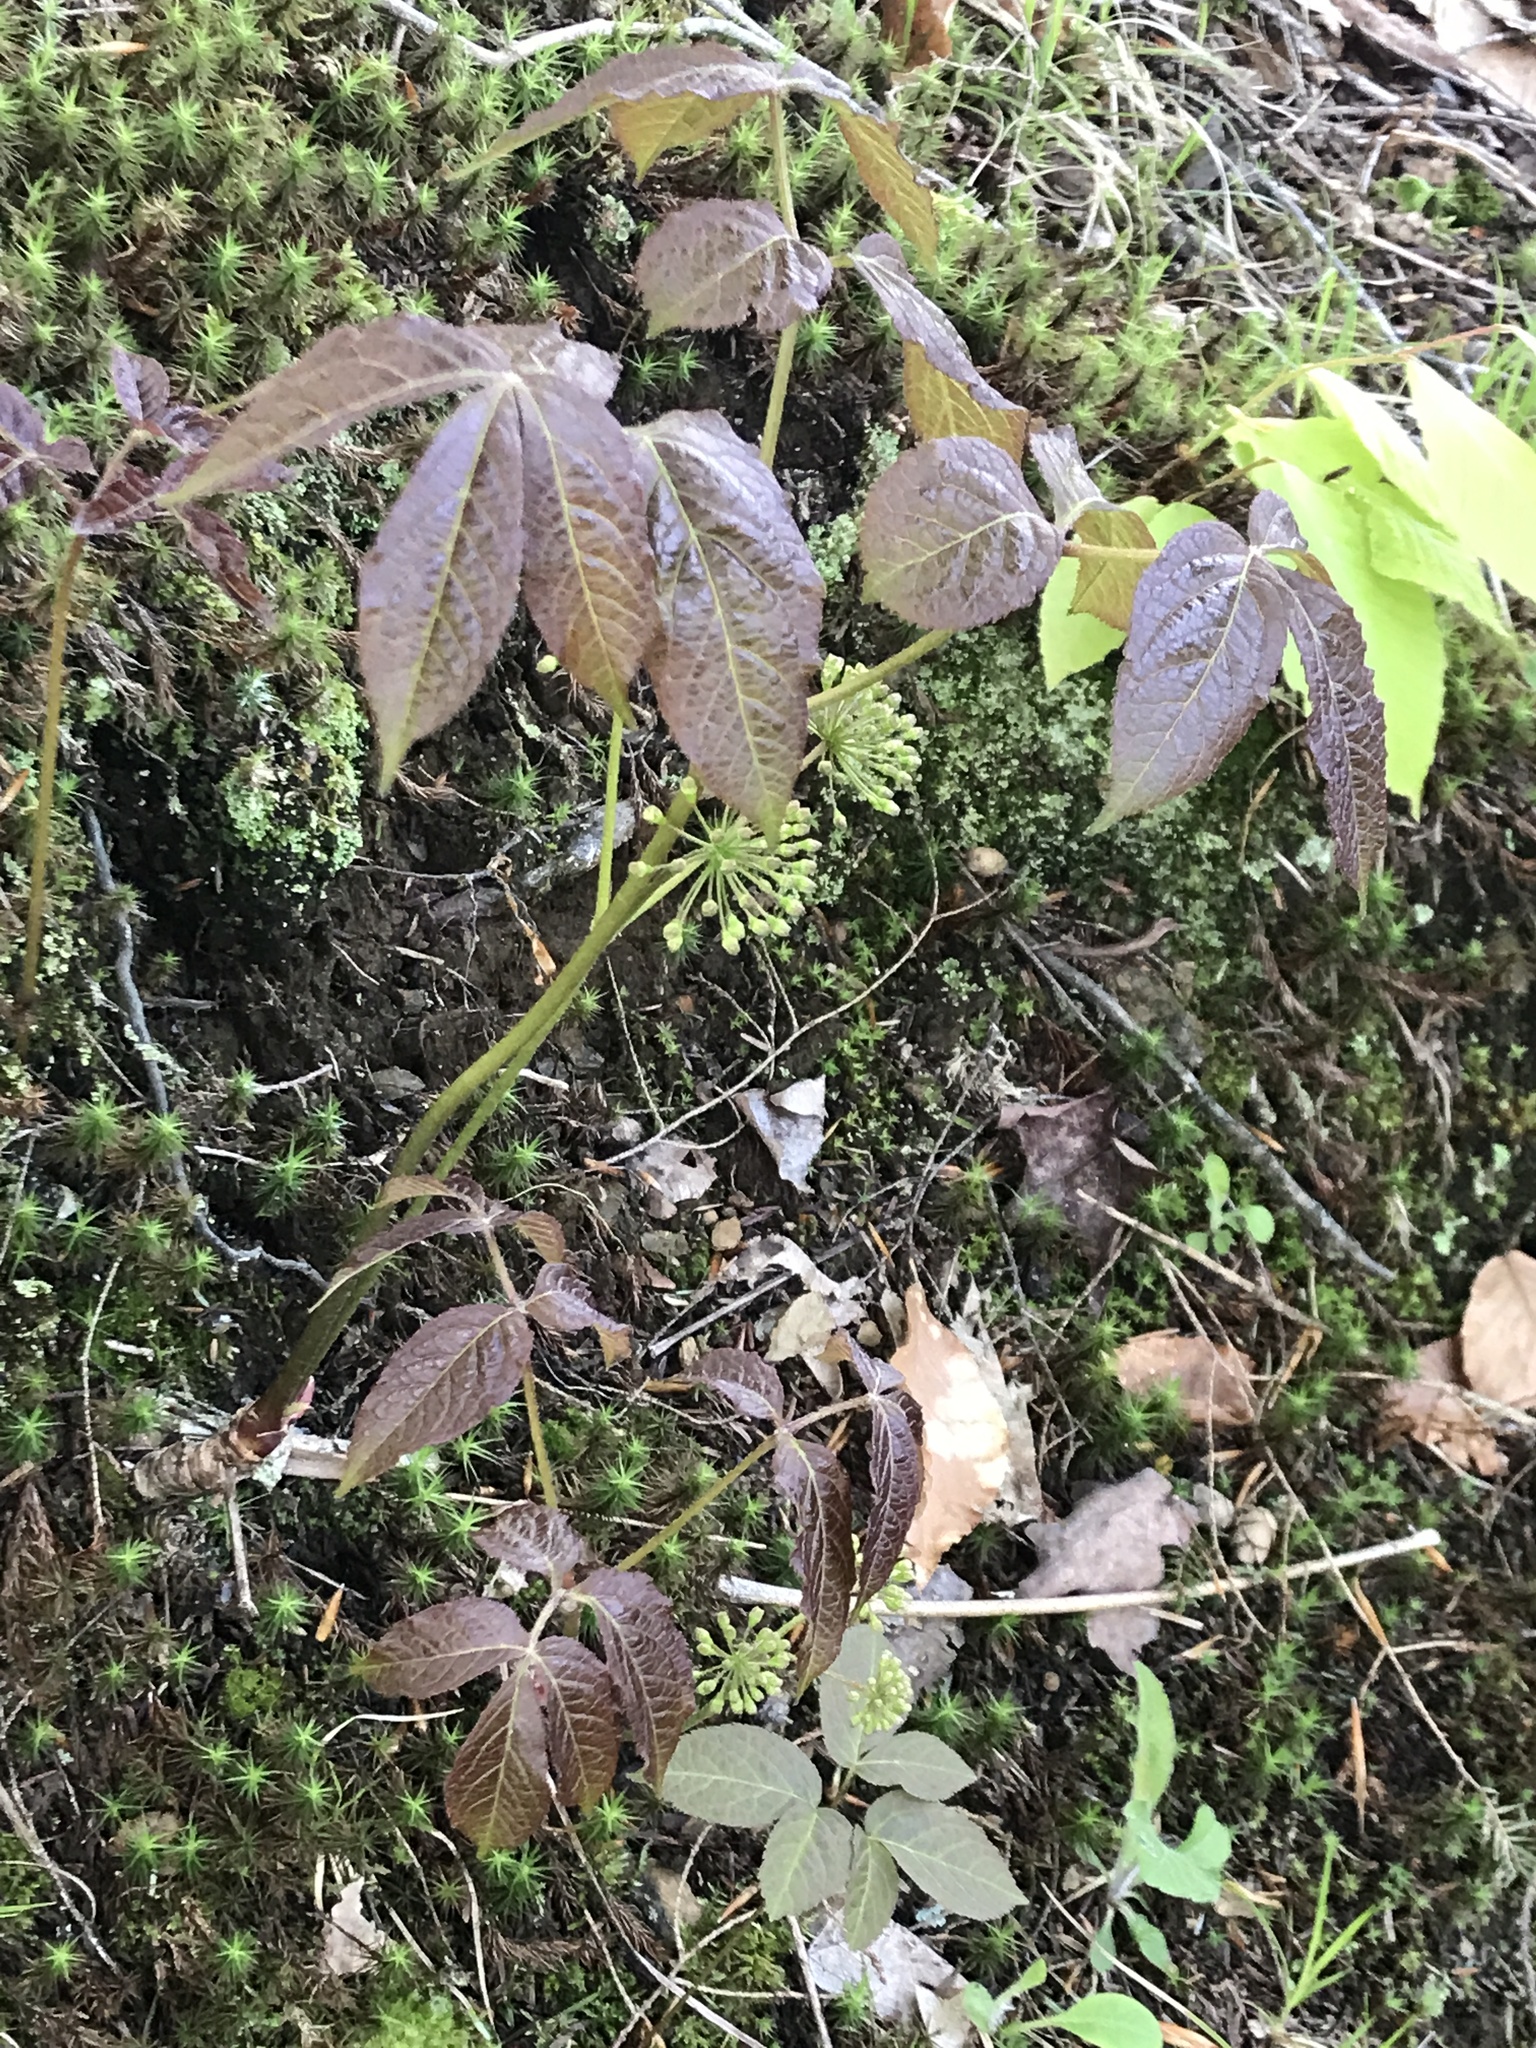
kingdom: Plantae
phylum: Tracheophyta
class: Magnoliopsida
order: Apiales
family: Araliaceae
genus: Aralia
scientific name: Aralia nudicaulis
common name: Wild sarsaparilla
